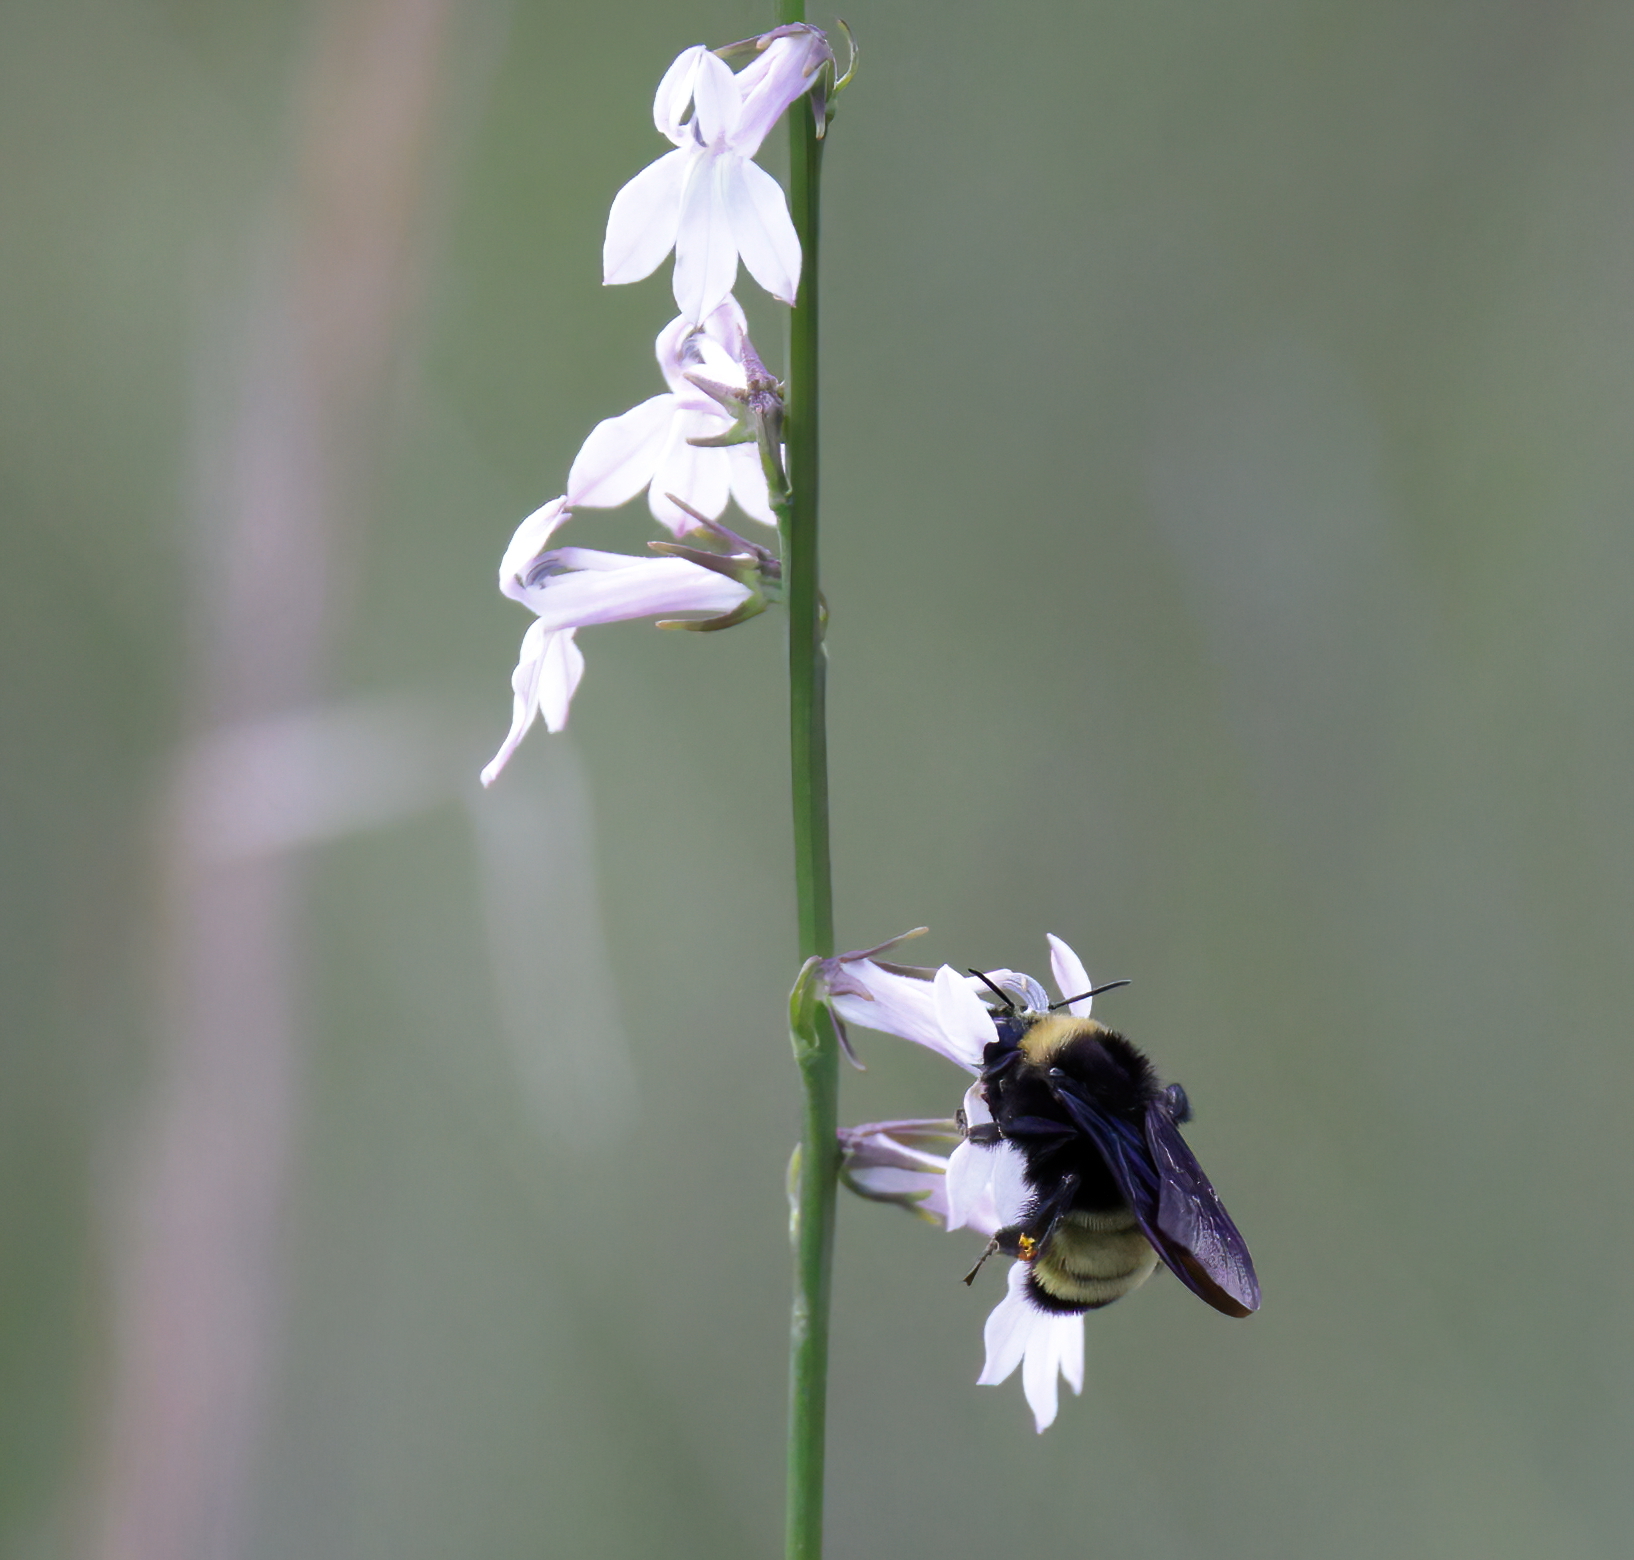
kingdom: Animalia
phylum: Arthropoda
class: Insecta
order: Hymenoptera
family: Apidae
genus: Bombus
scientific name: Bombus pensylvanicus
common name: Bumble bee
